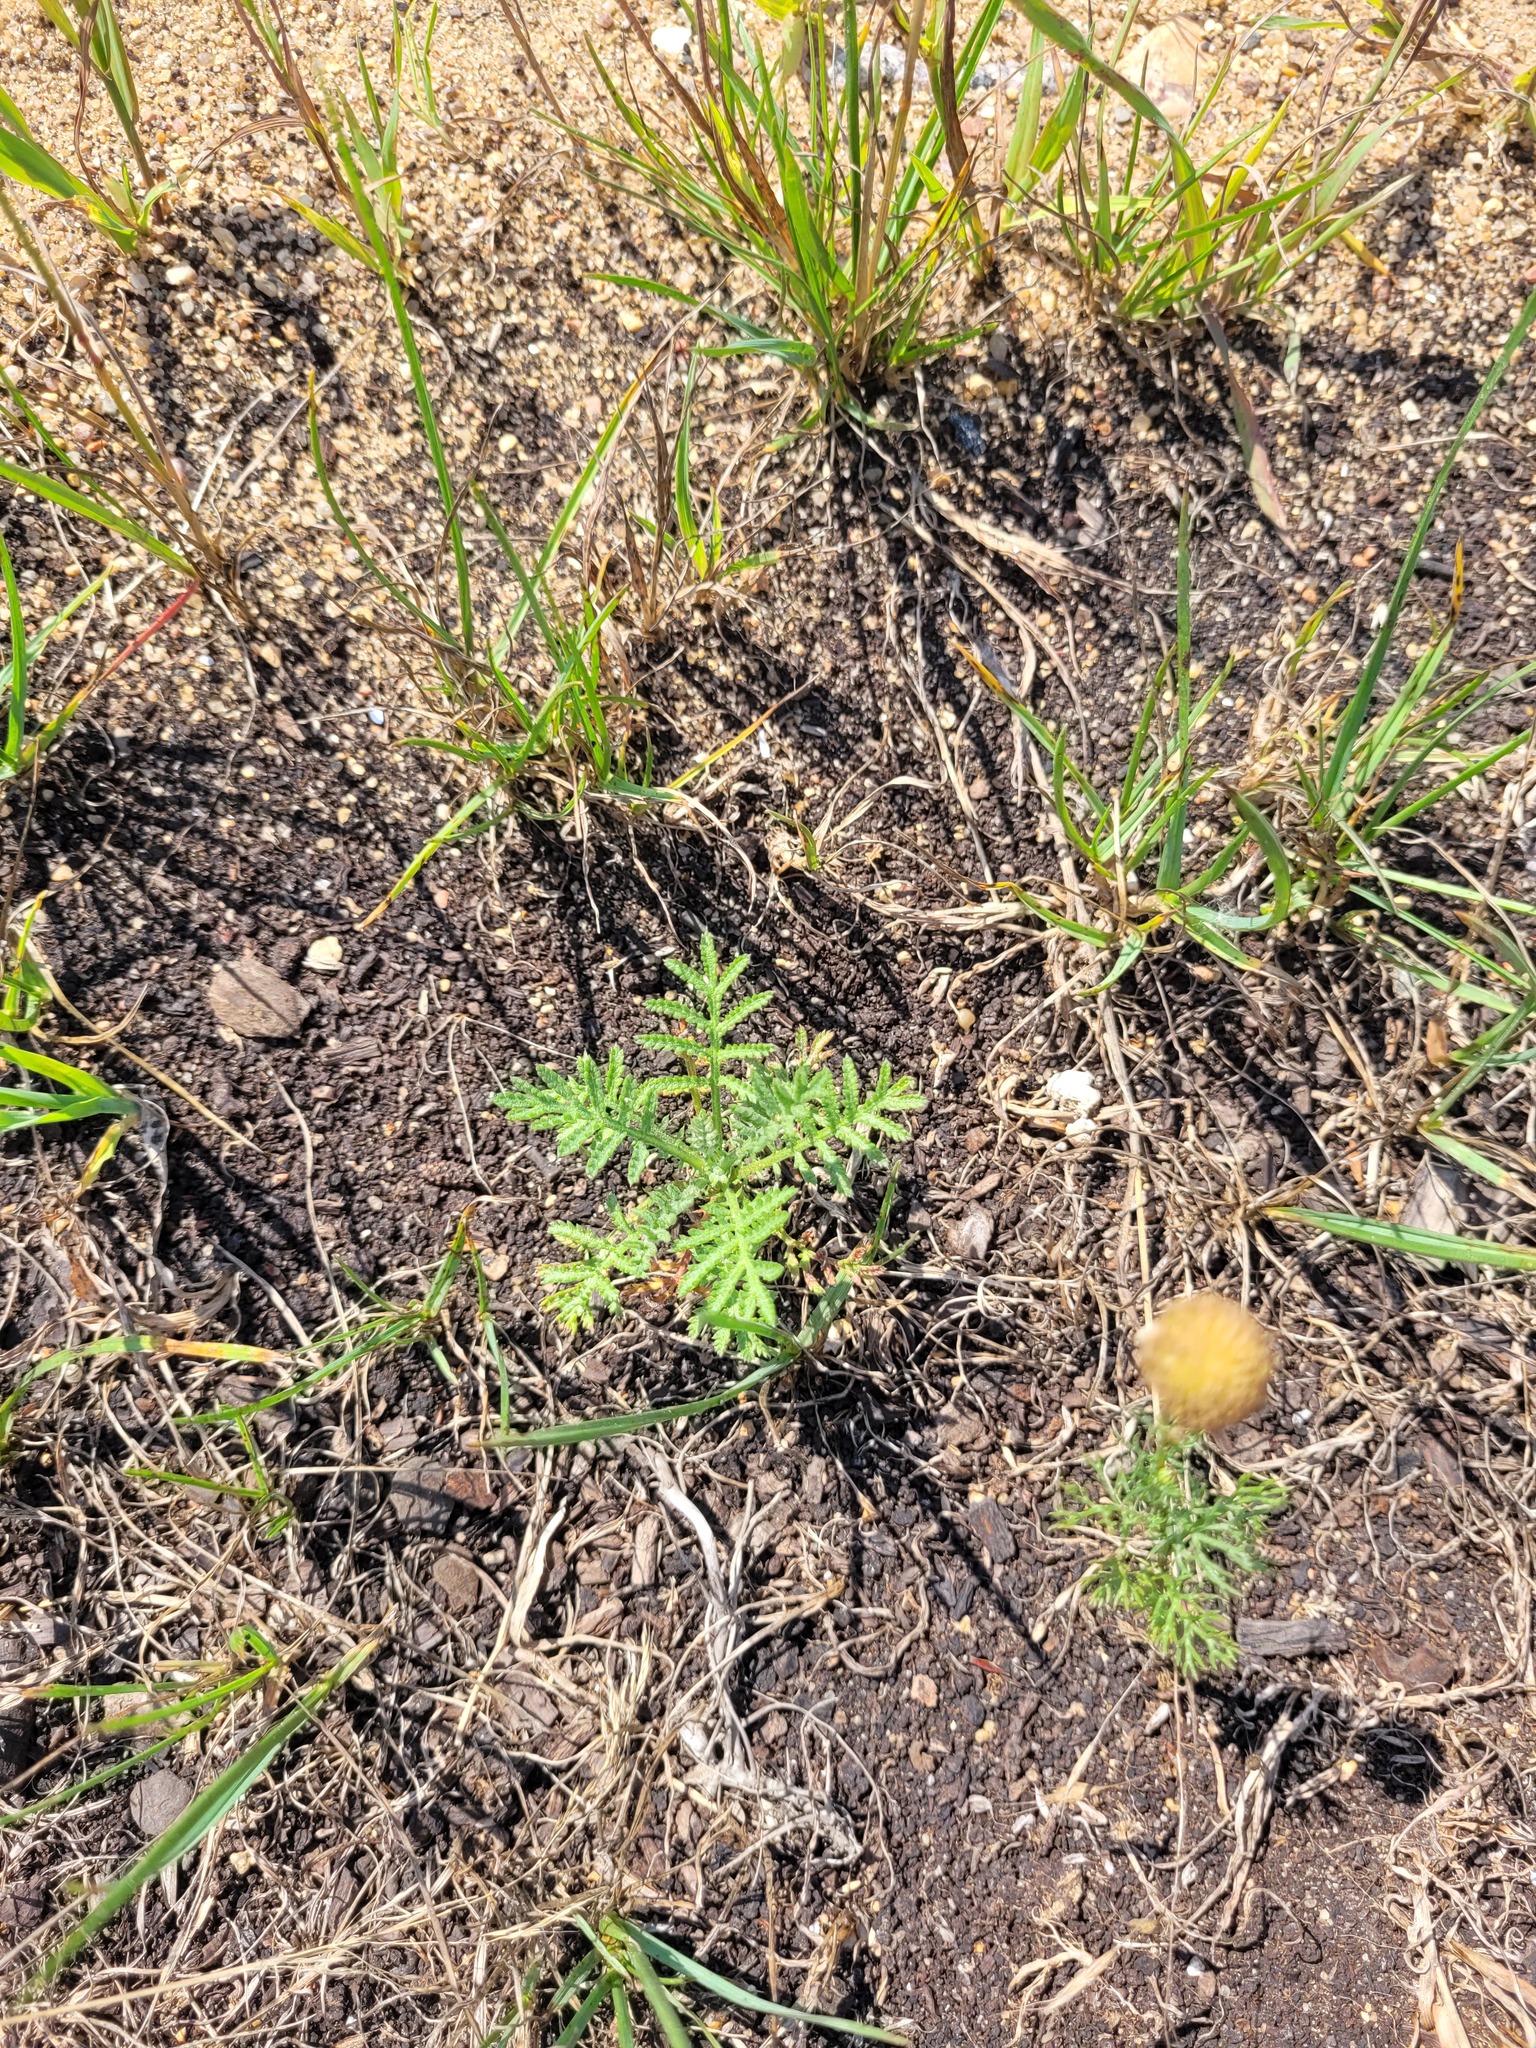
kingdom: Plantae
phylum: Tracheophyta
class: Magnoliopsida
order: Asterales
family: Asteraceae
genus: Cota
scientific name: Cota tinctoria
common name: Golden chamomile
